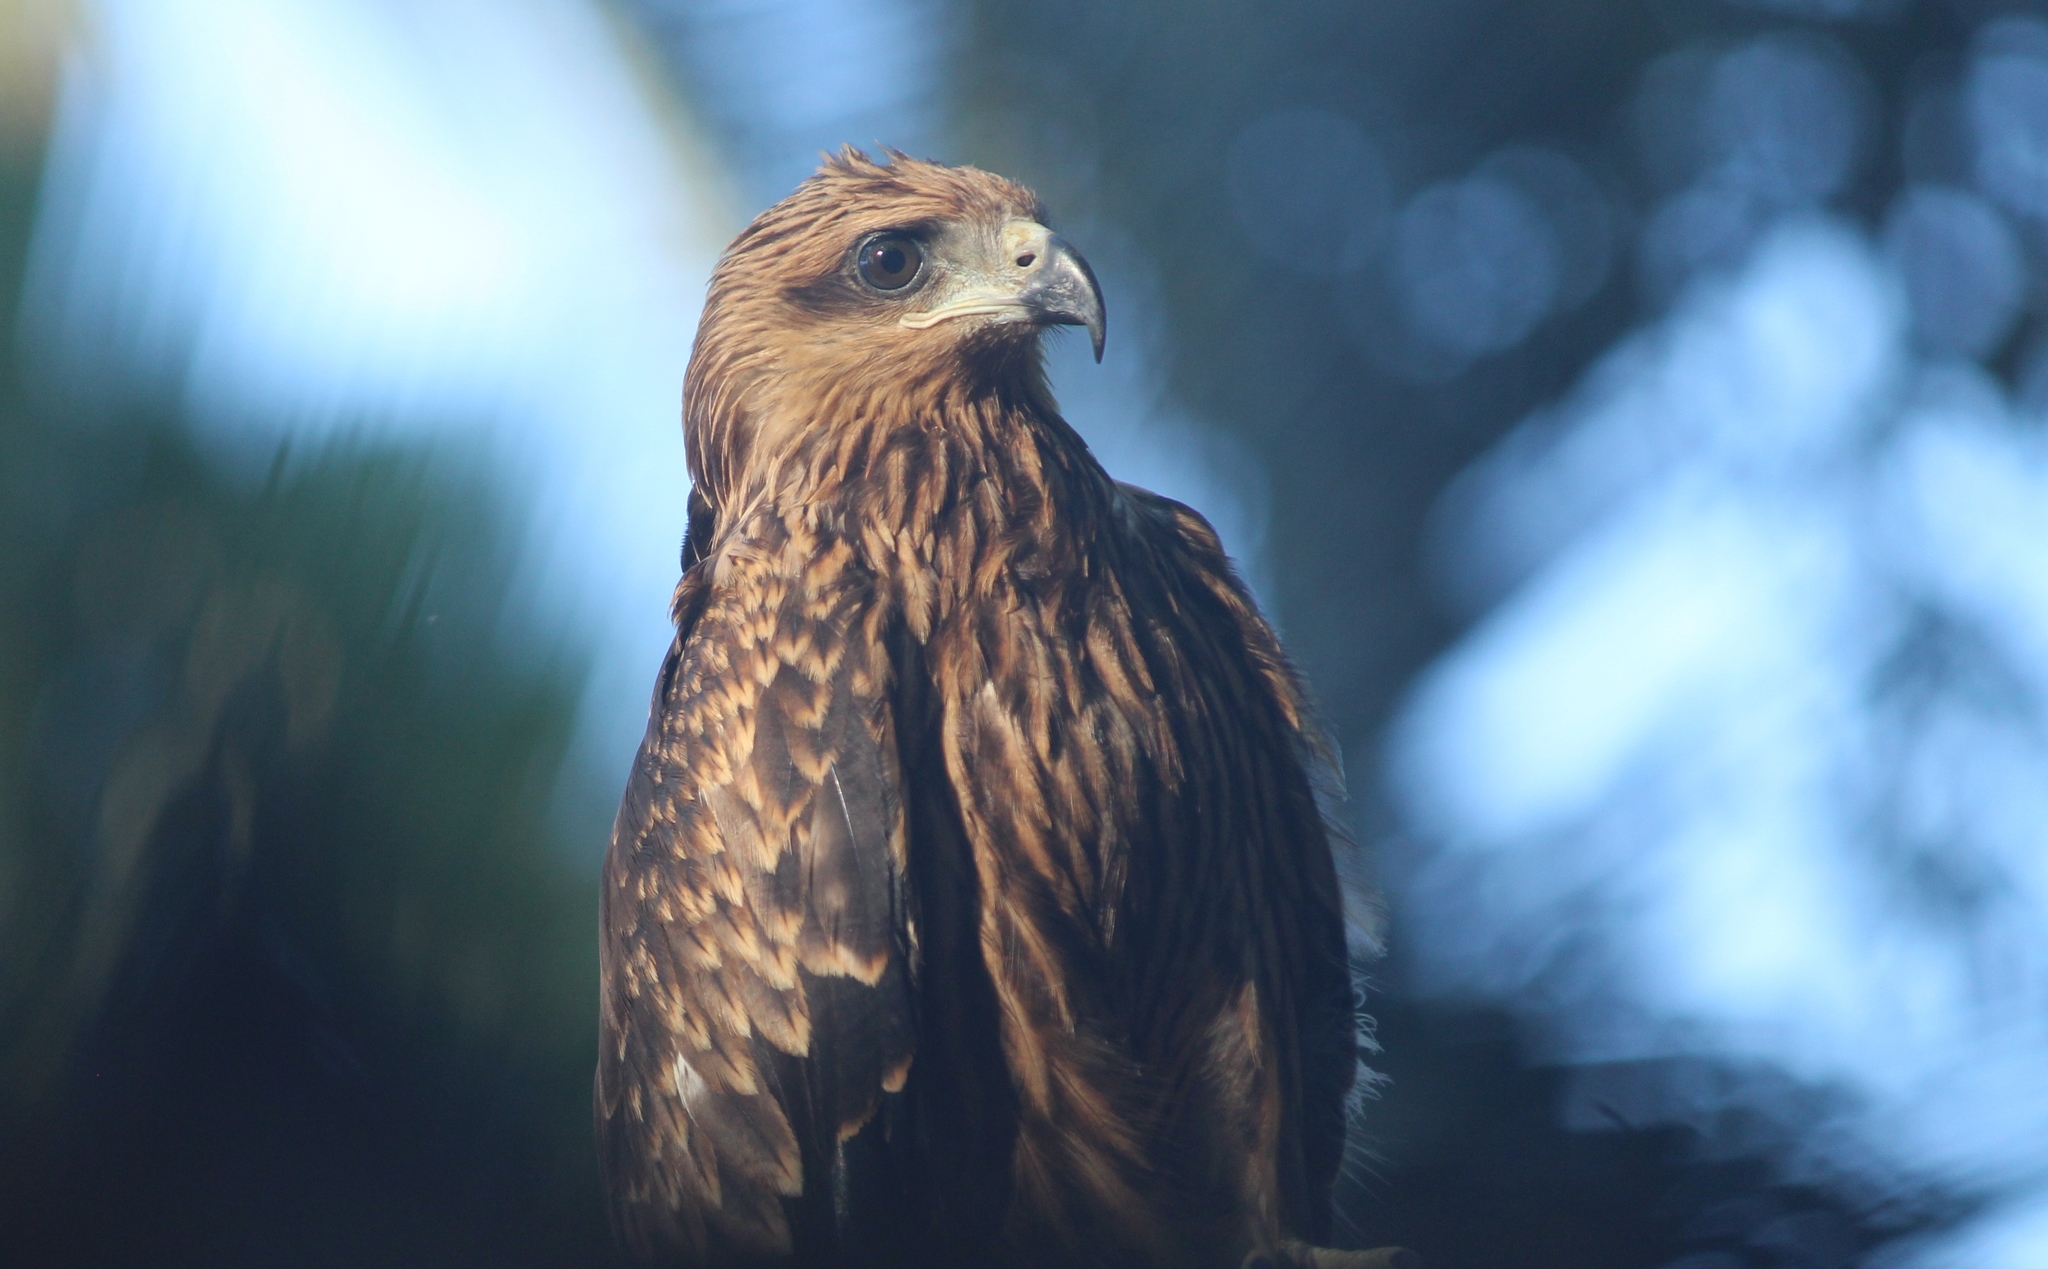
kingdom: Animalia
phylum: Chordata
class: Aves
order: Accipitriformes
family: Accipitridae
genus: Milvus
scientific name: Milvus migrans
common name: Black kite
